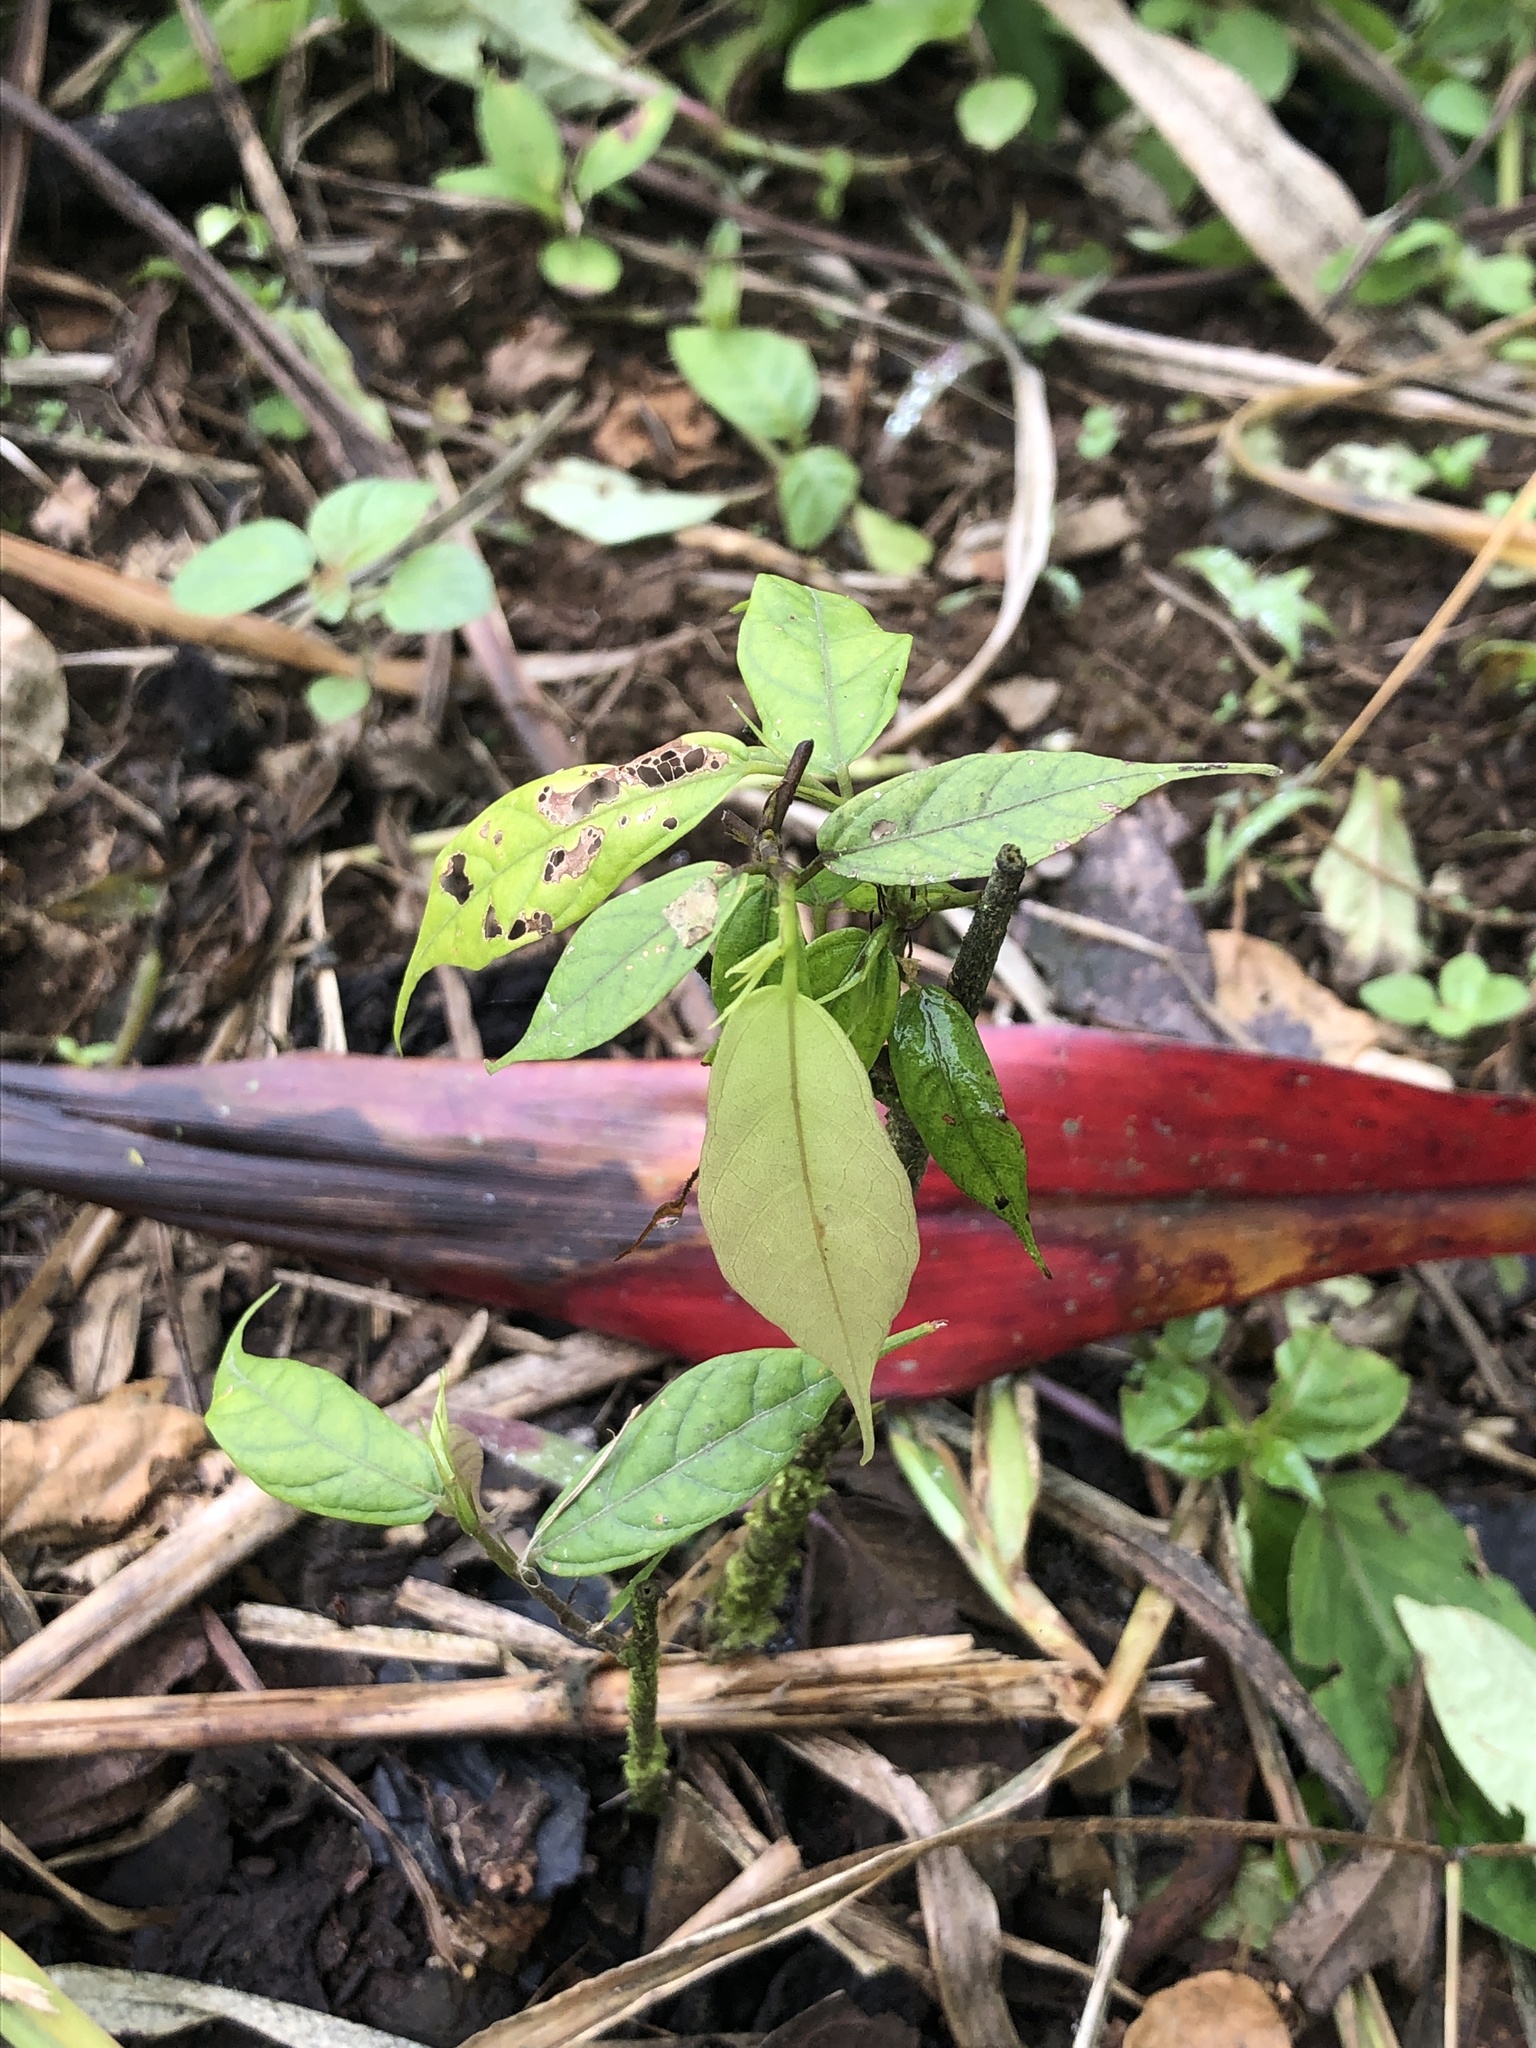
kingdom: Plantae
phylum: Tracheophyta
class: Magnoliopsida
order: Malvales
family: Malvaceae
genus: Theobroma
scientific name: Theobroma gileri
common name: Mountain cocoa
